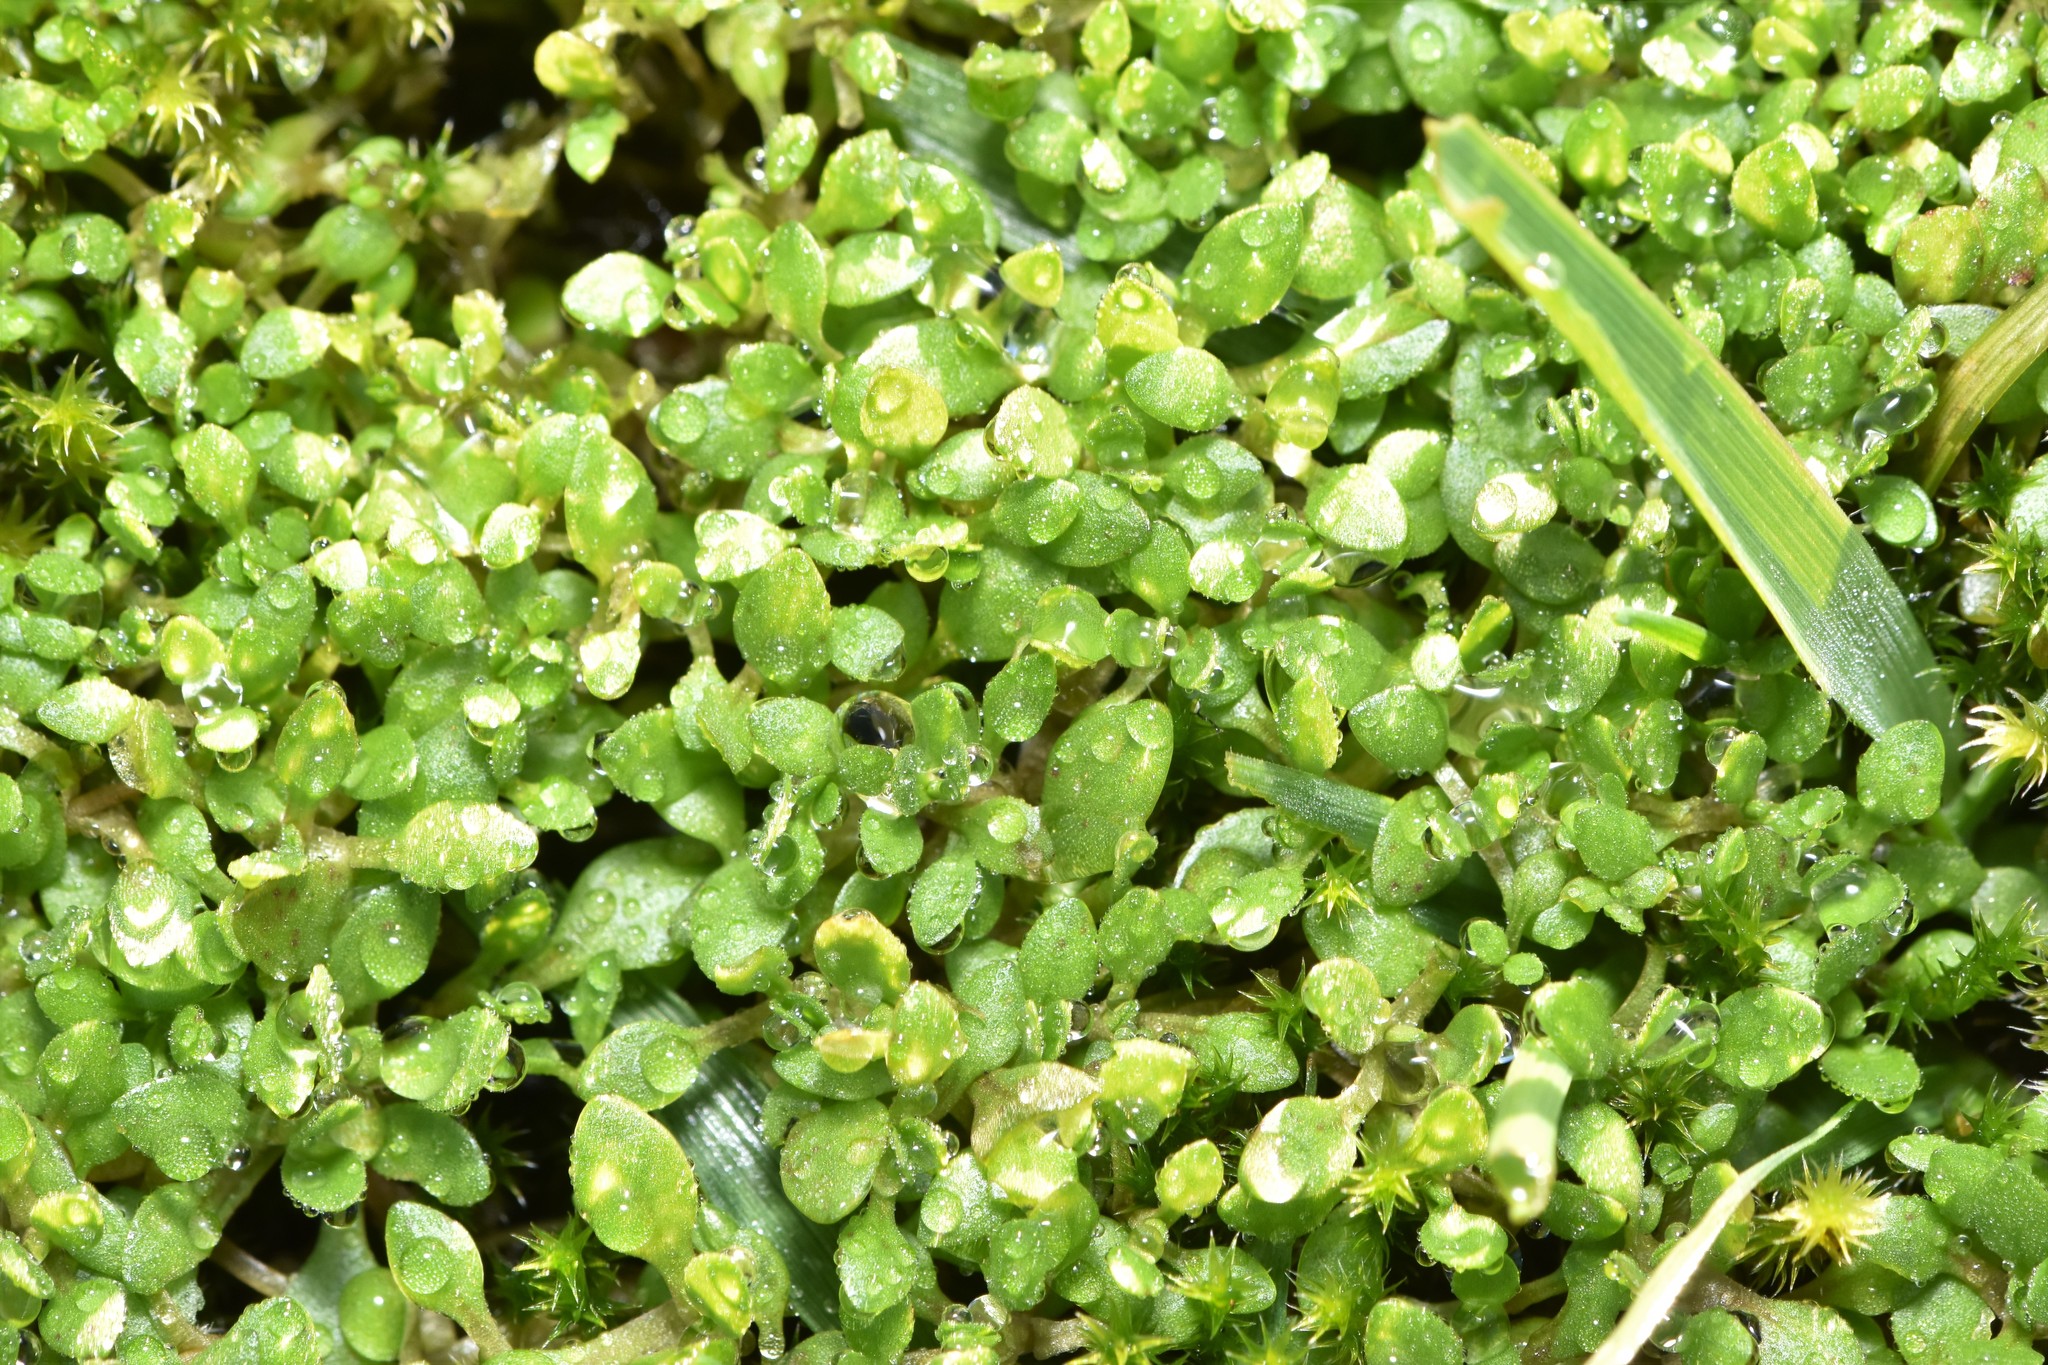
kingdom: Plantae
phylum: Tracheophyta
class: Magnoliopsida
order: Caryophyllales
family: Montiaceae
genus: Montia
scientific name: Montia fontana
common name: Blinks
